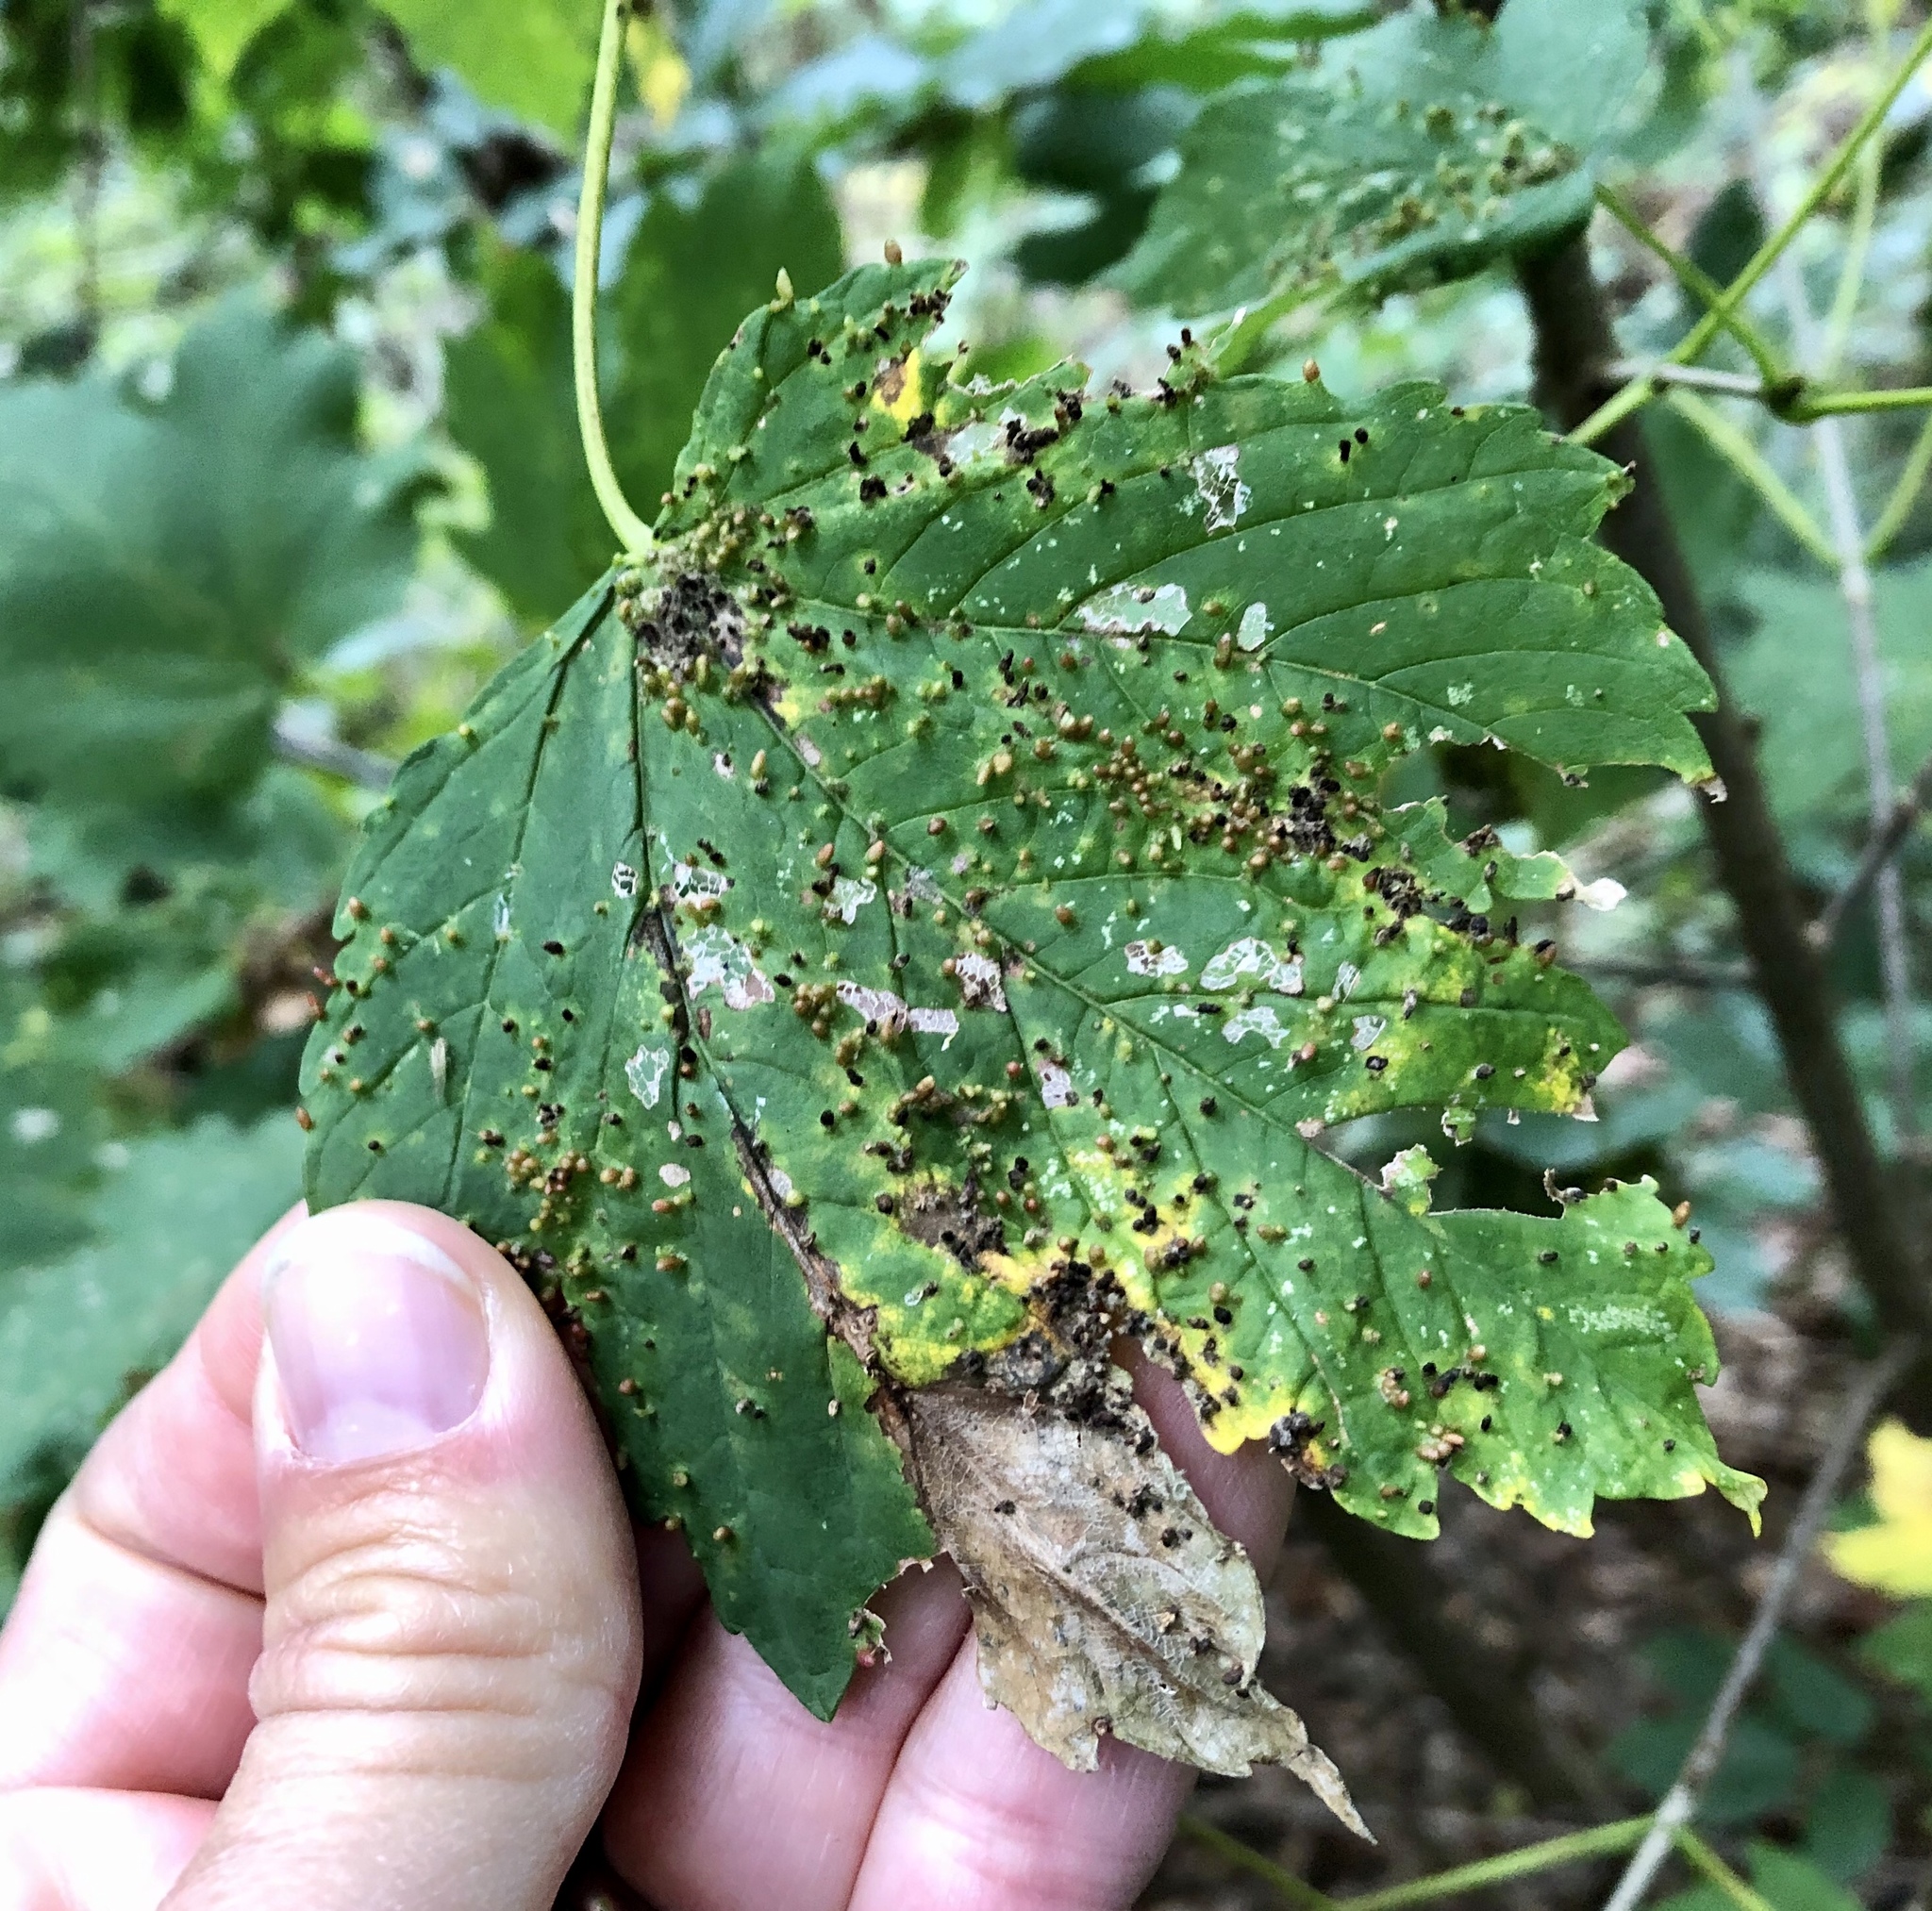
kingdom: Animalia
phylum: Arthropoda
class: Arachnida
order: Trombidiformes
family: Eriophyidae
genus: Aceria
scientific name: Aceria cephaloneus
